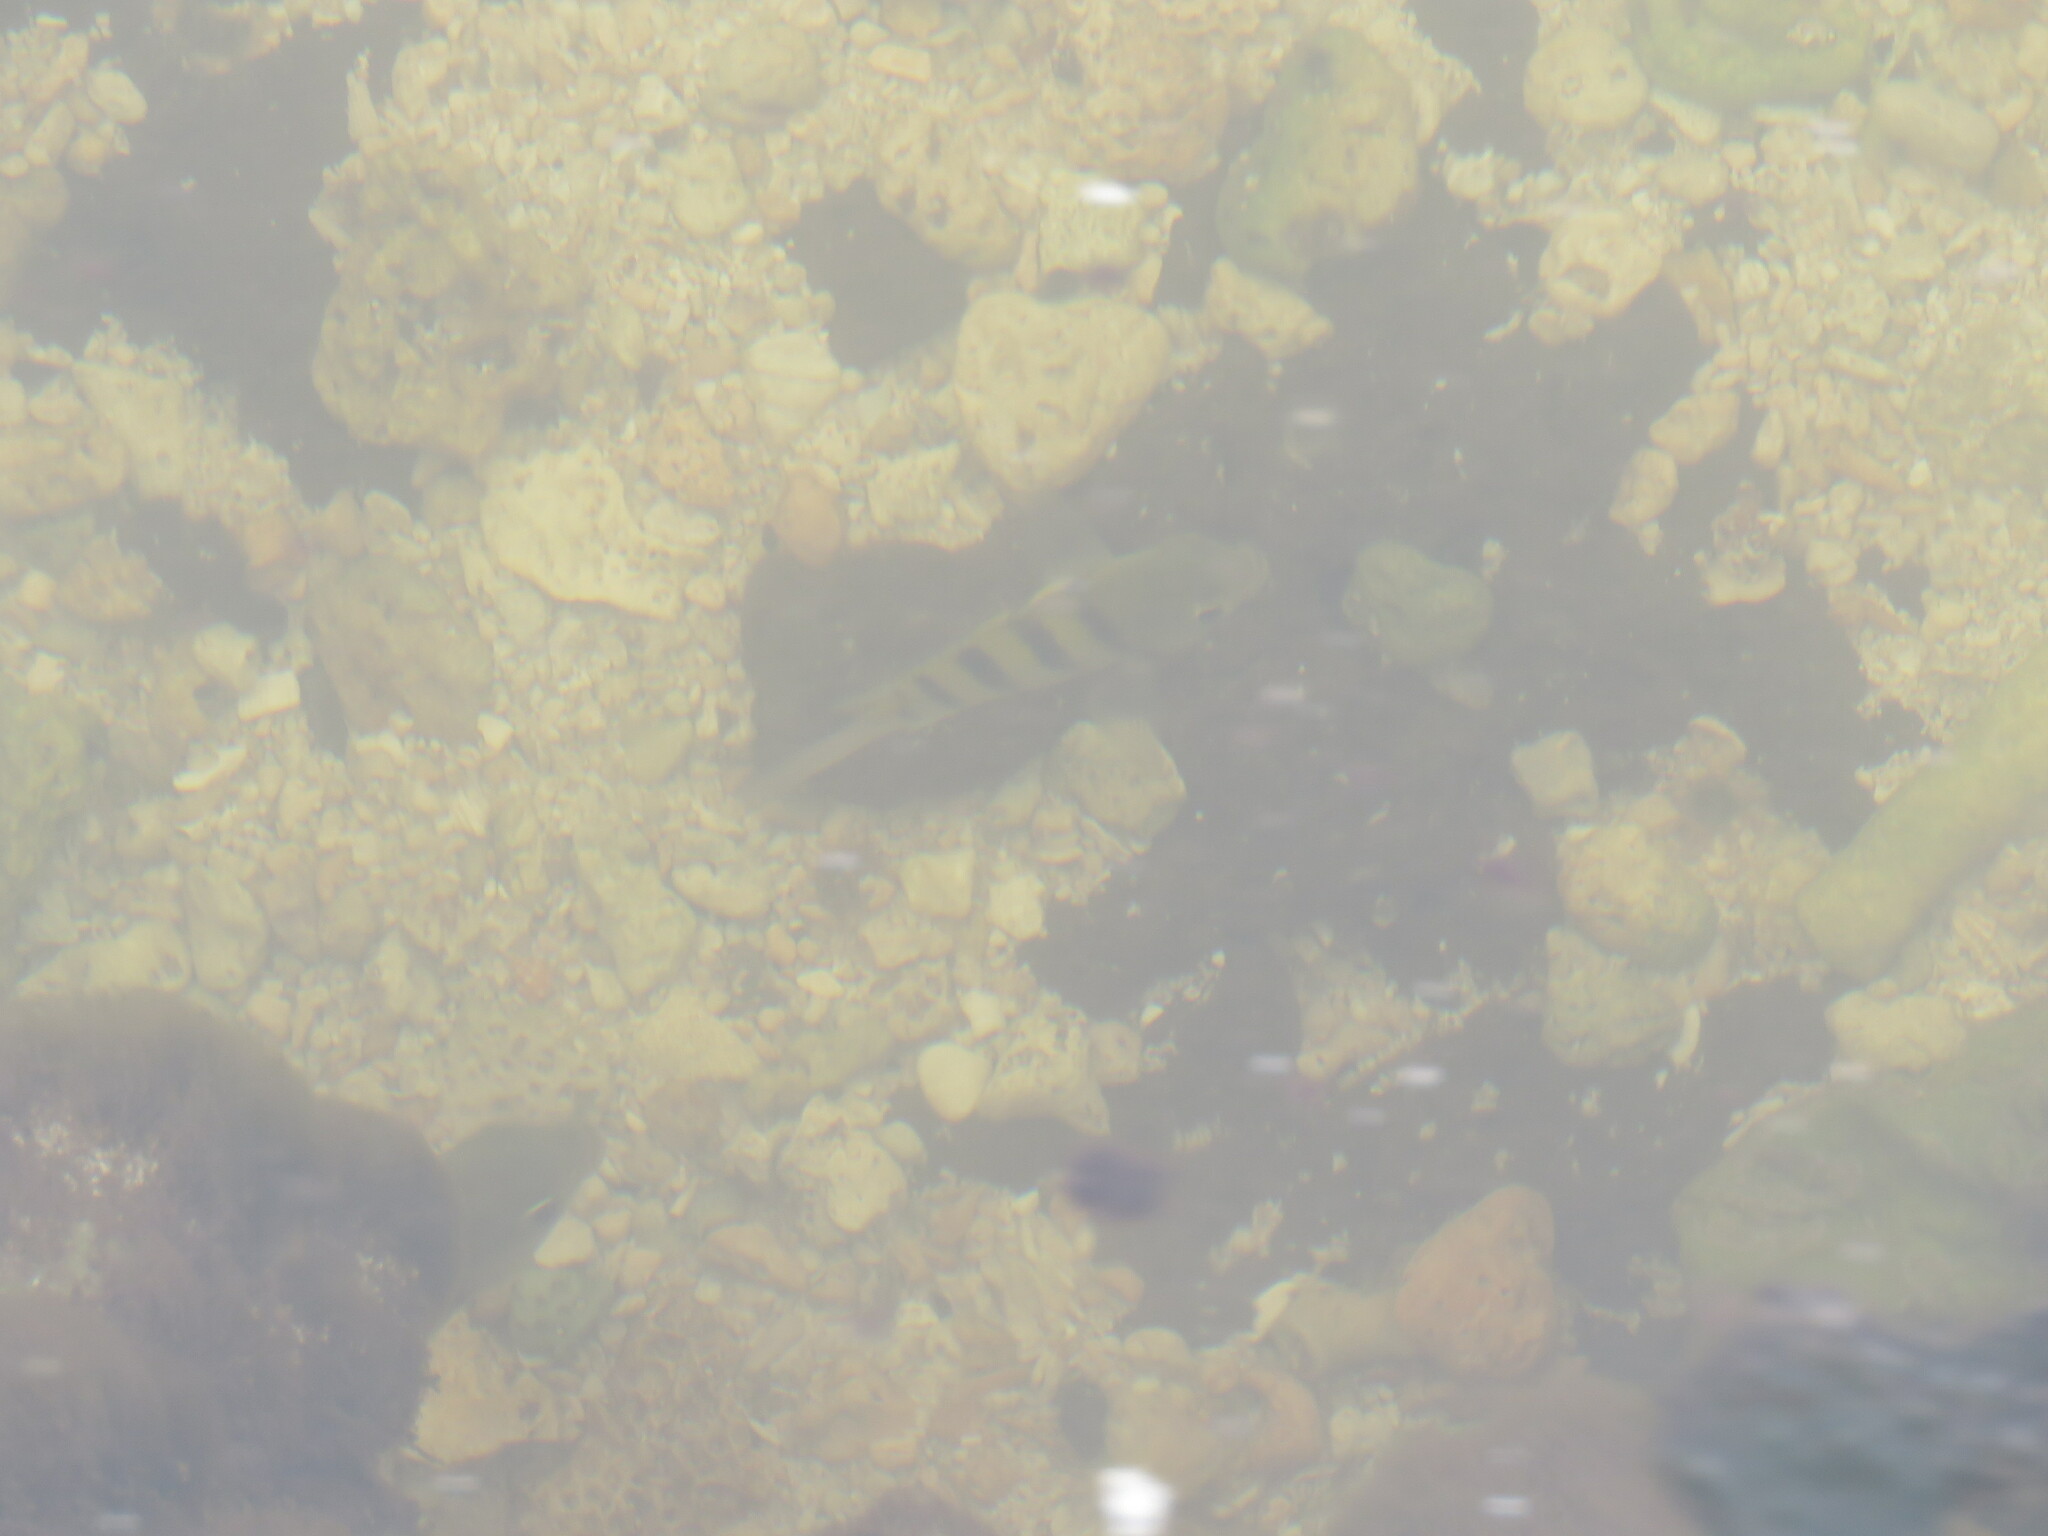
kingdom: Animalia
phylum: Chordata
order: Perciformes
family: Pomacentridae
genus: Abudefduf
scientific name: Abudefduf saxatilis
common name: Sergeant major
